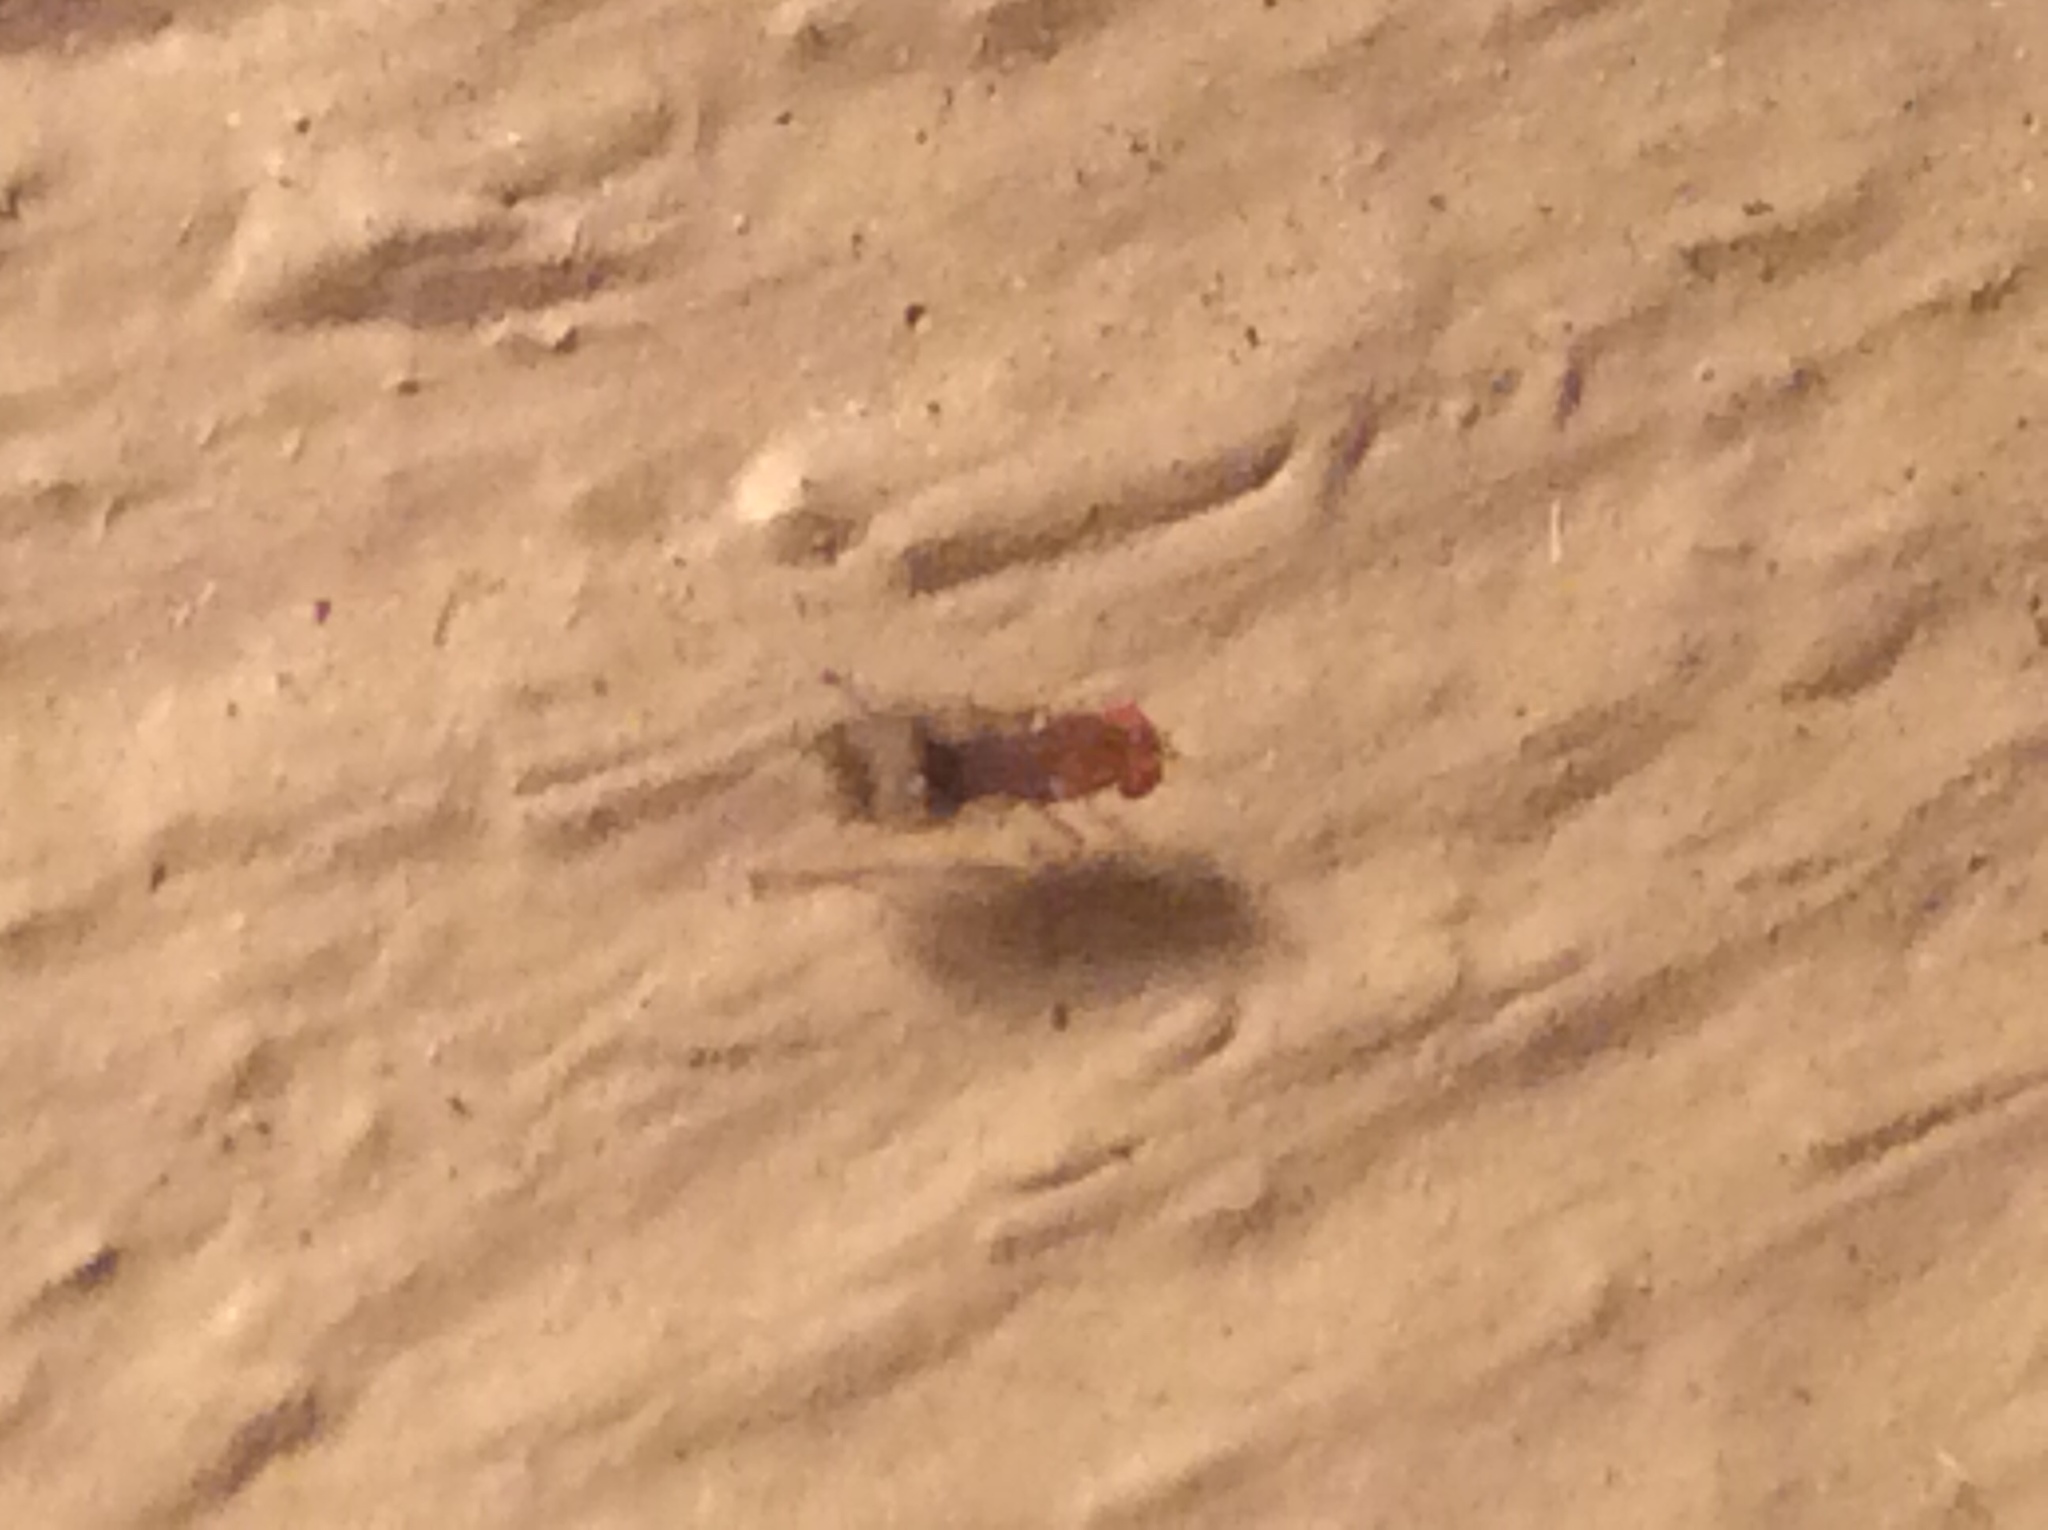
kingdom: Animalia
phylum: Arthropoda
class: Insecta
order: Diptera
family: Drosophilidae
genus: Chymomyza
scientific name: Chymomyza amoena
